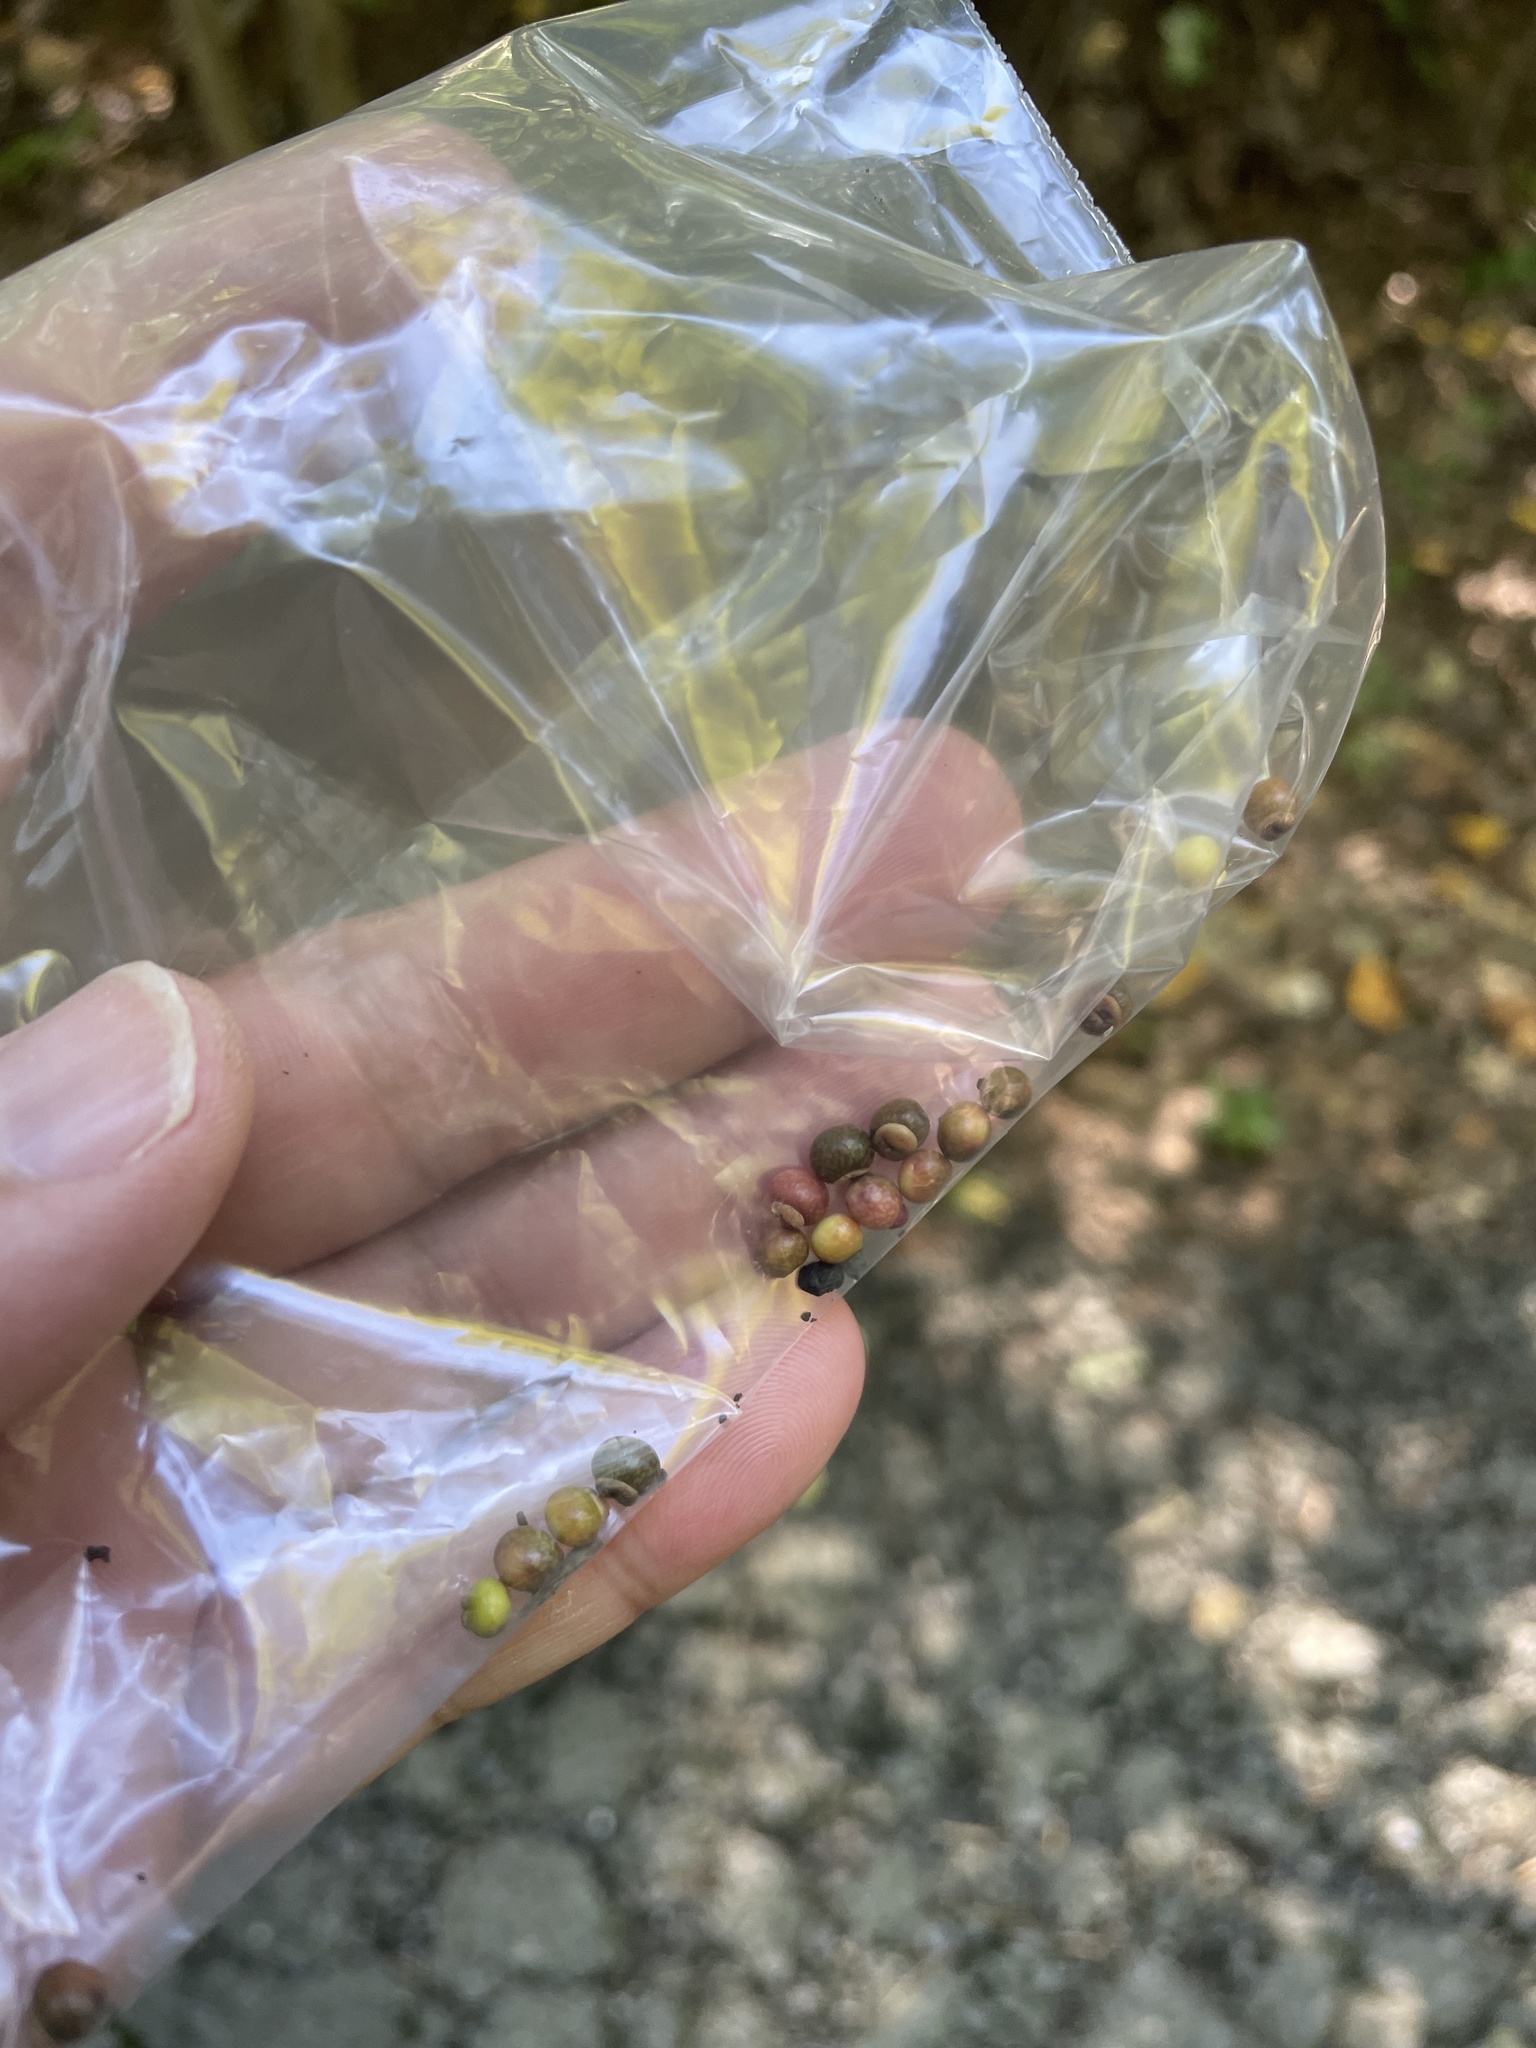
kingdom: Animalia
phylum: Arthropoda
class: Insecta
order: Hymenoptera
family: Cynipidae
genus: Kokkocynips
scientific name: Kokkocynips rileyi
